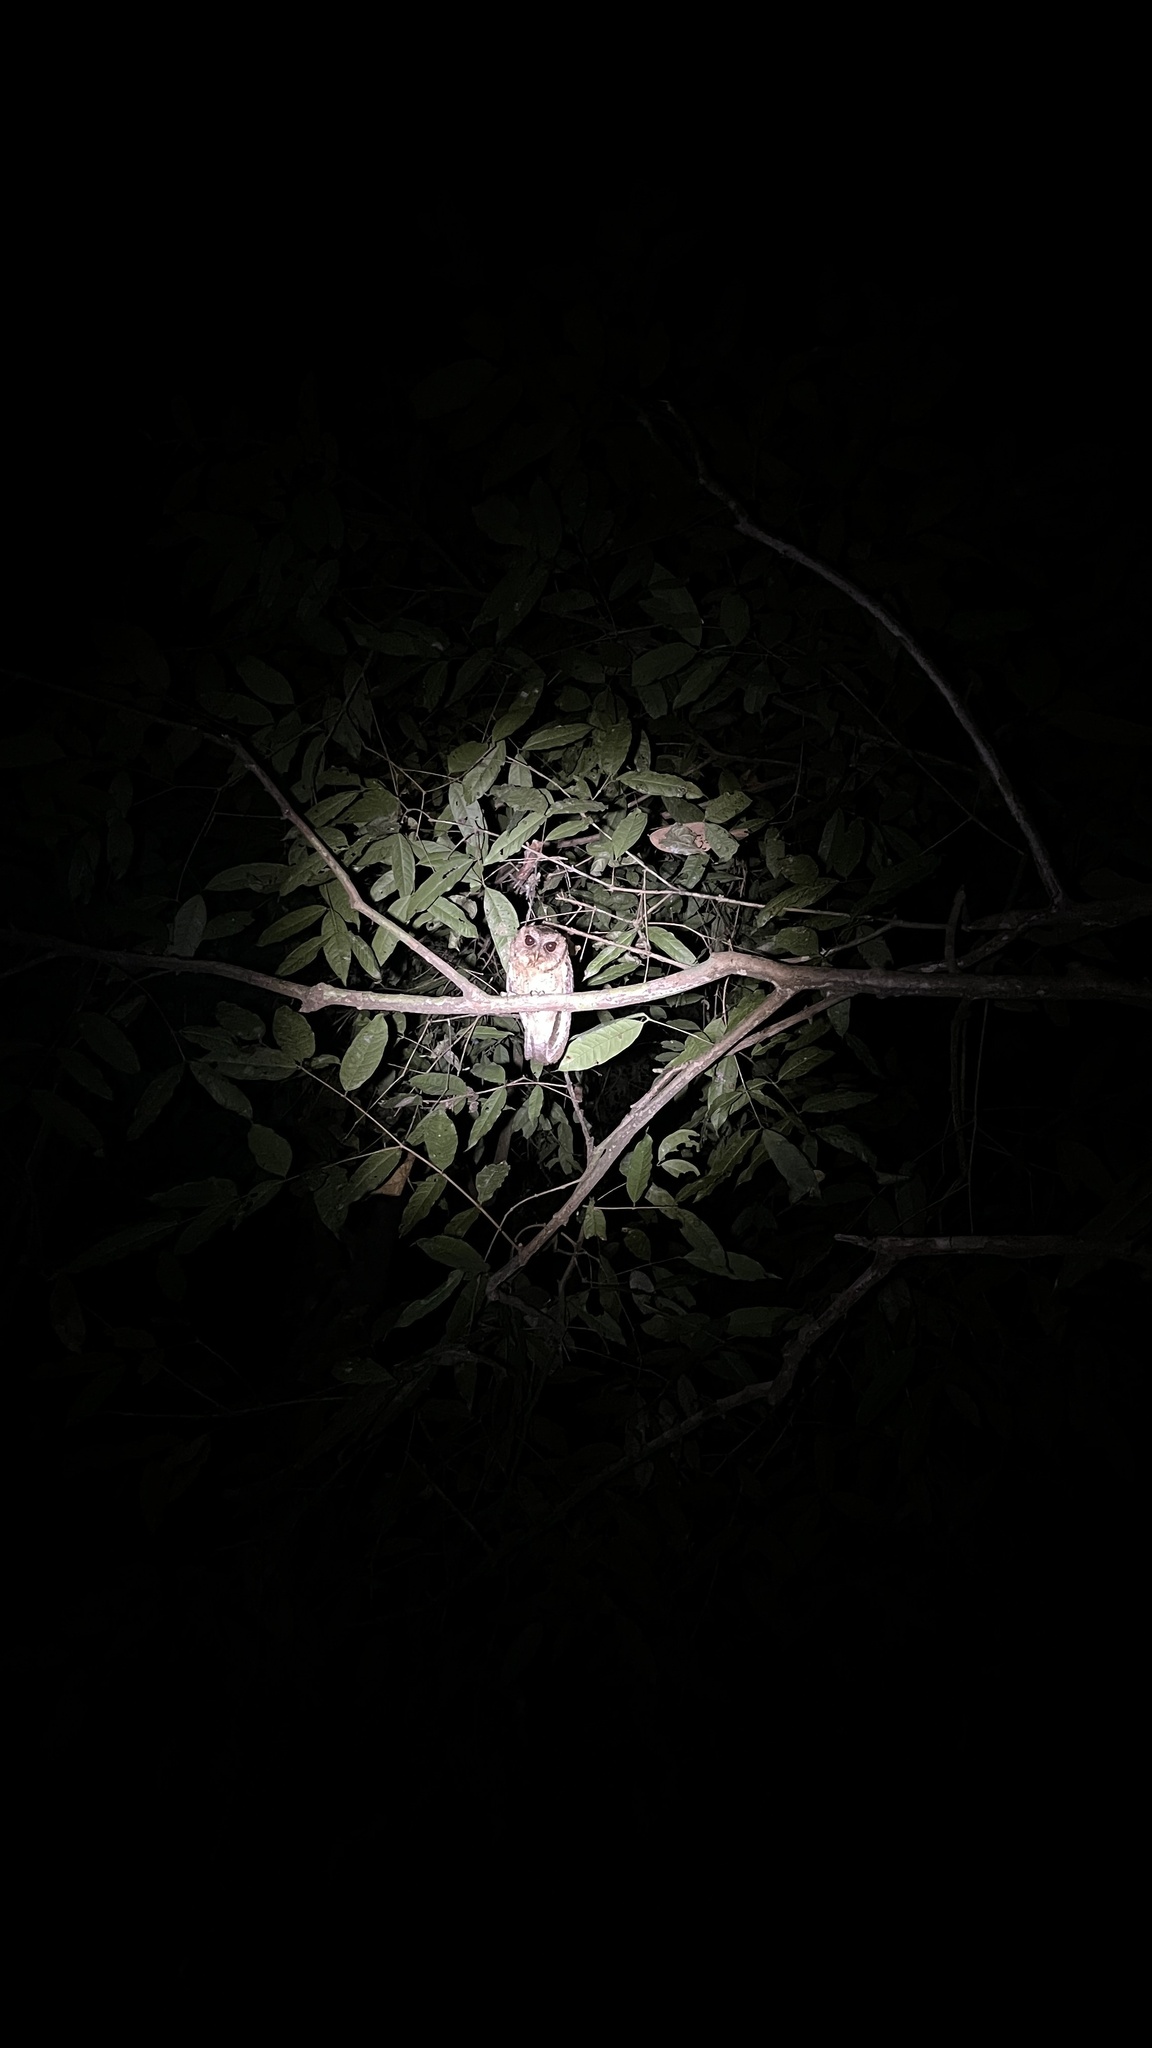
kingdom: Animalia
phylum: Chordata
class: Aves
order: Strigiformes
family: Strigidae
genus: Otus
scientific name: Otus lettia
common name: Collared scops owl
